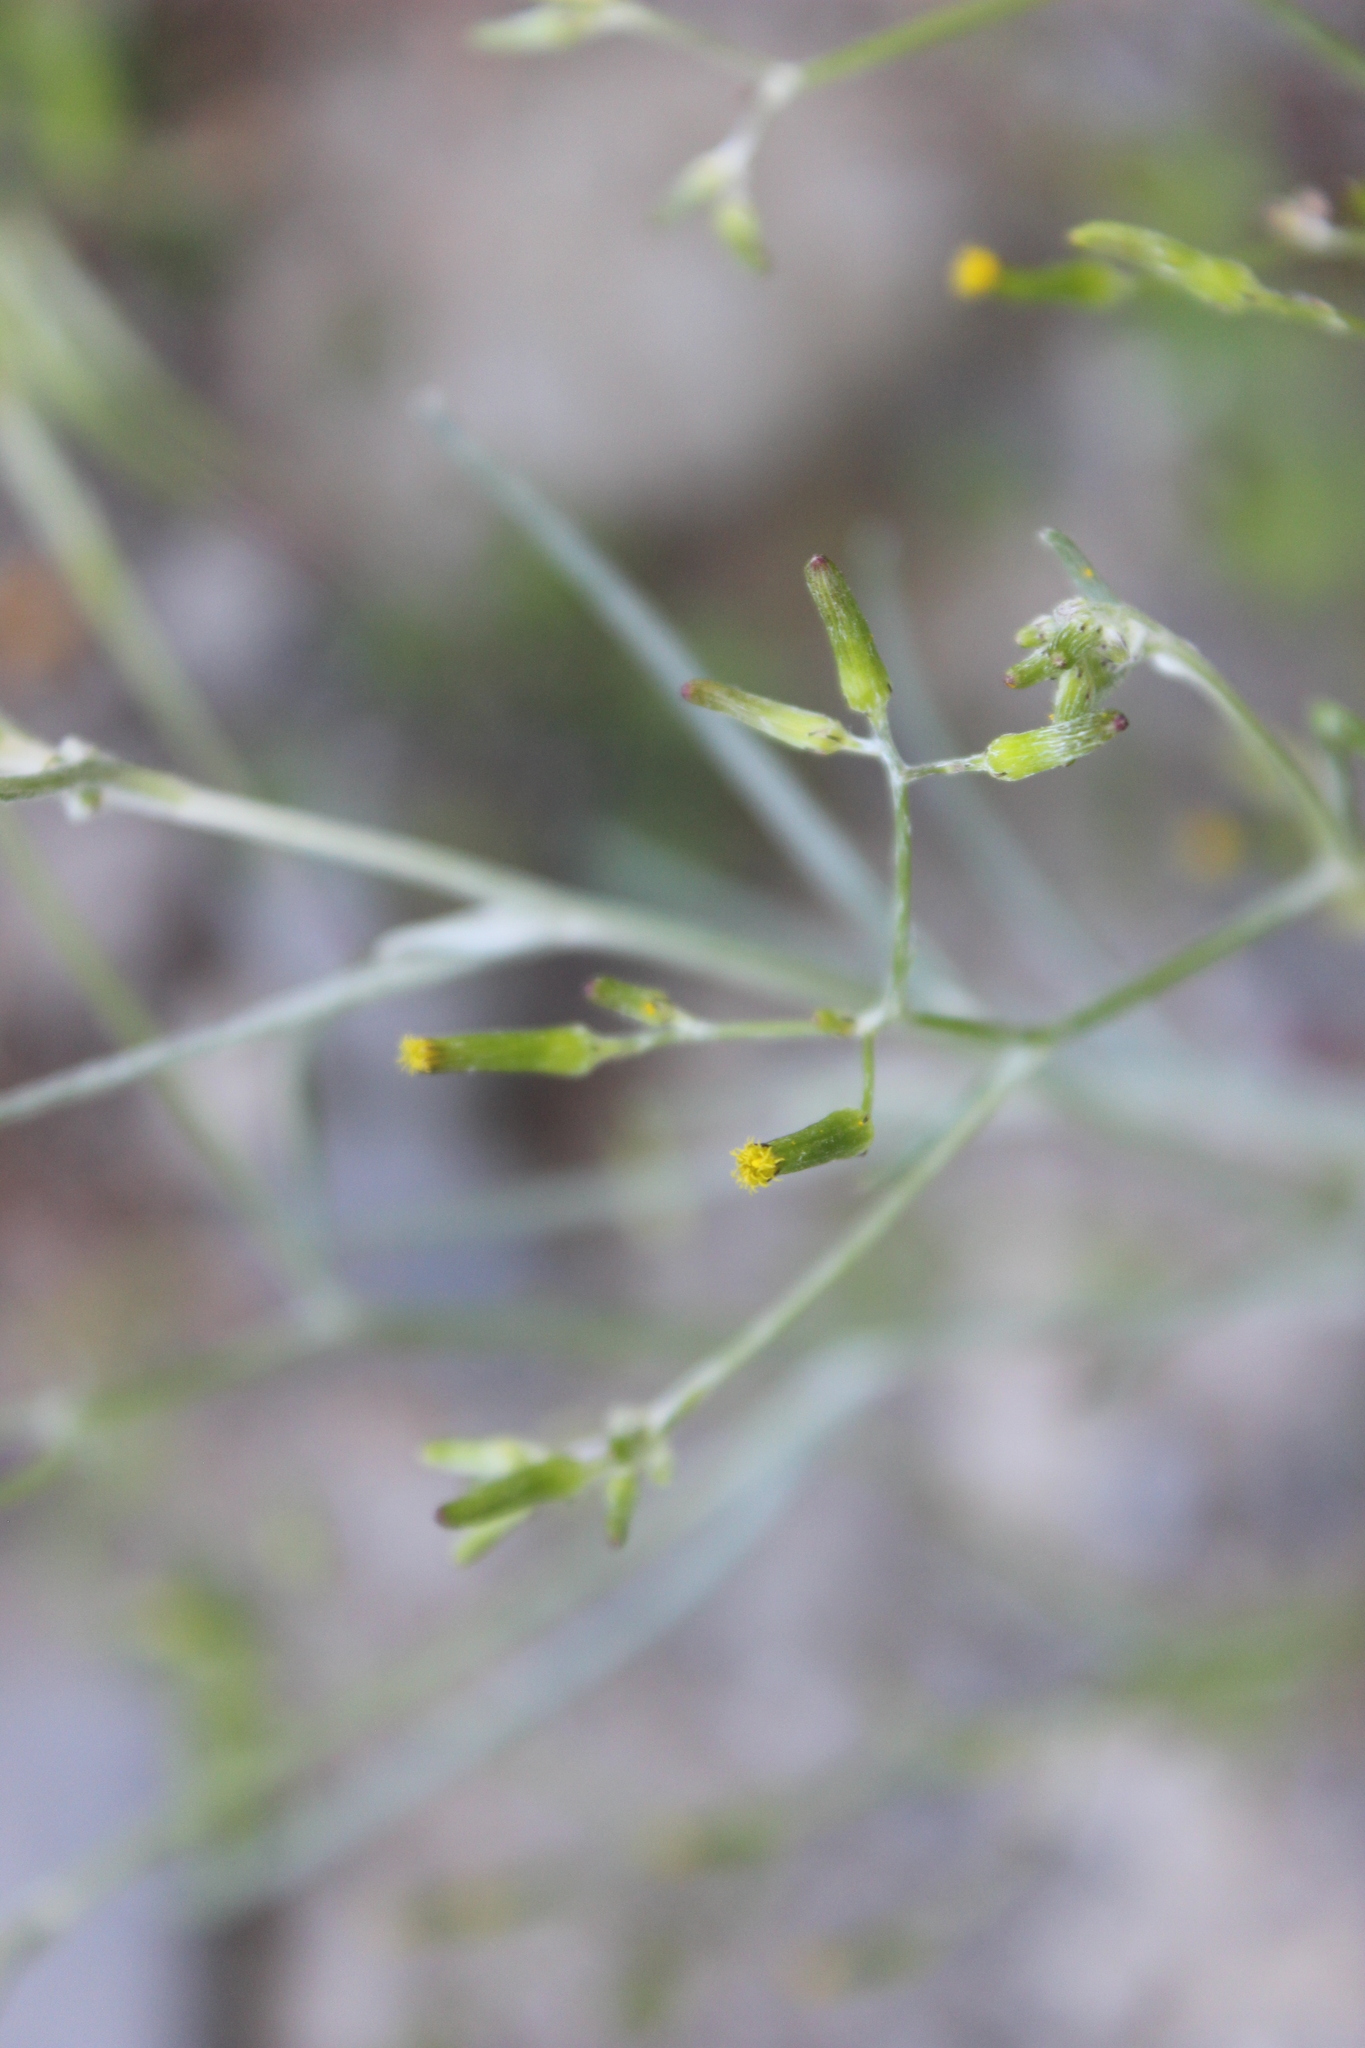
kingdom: Plantae
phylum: Tracheophyta
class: Magnoliopsida
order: Asterales
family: Asteraceae
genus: Senecio
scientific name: Senecio quadridentatus
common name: Cotton fireweed
